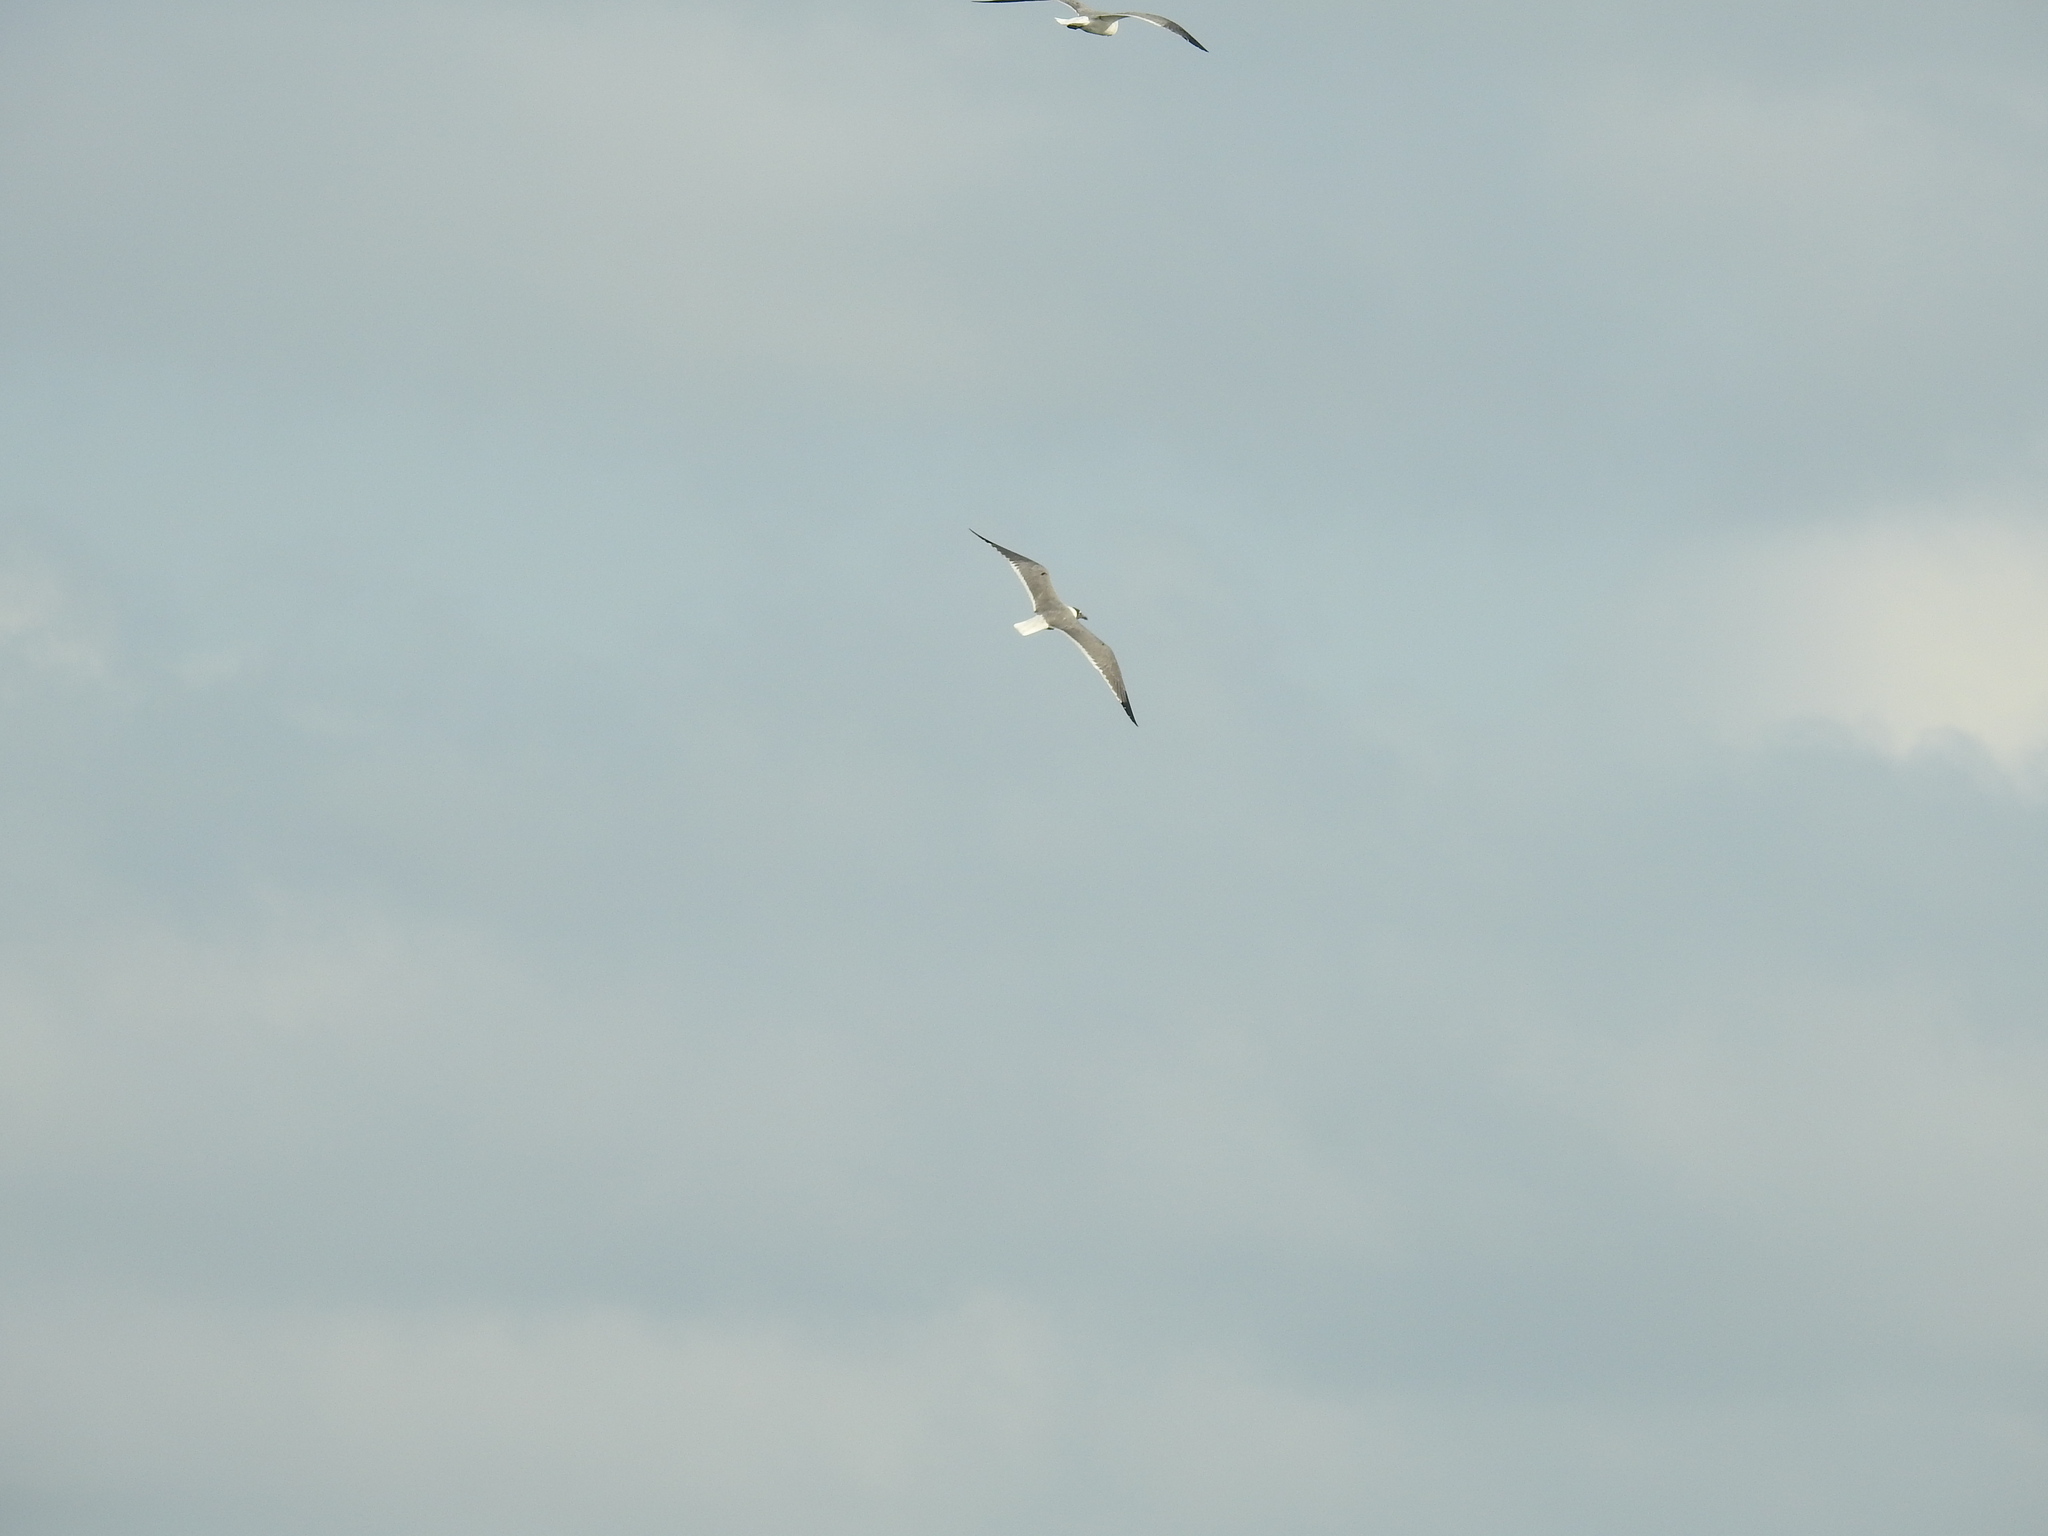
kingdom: Animalia
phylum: Chordata
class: Aves
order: Charadriiformes
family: Laridae
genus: Leucophaeus
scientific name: Leucophaeus atricilla
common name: Laughing gull
